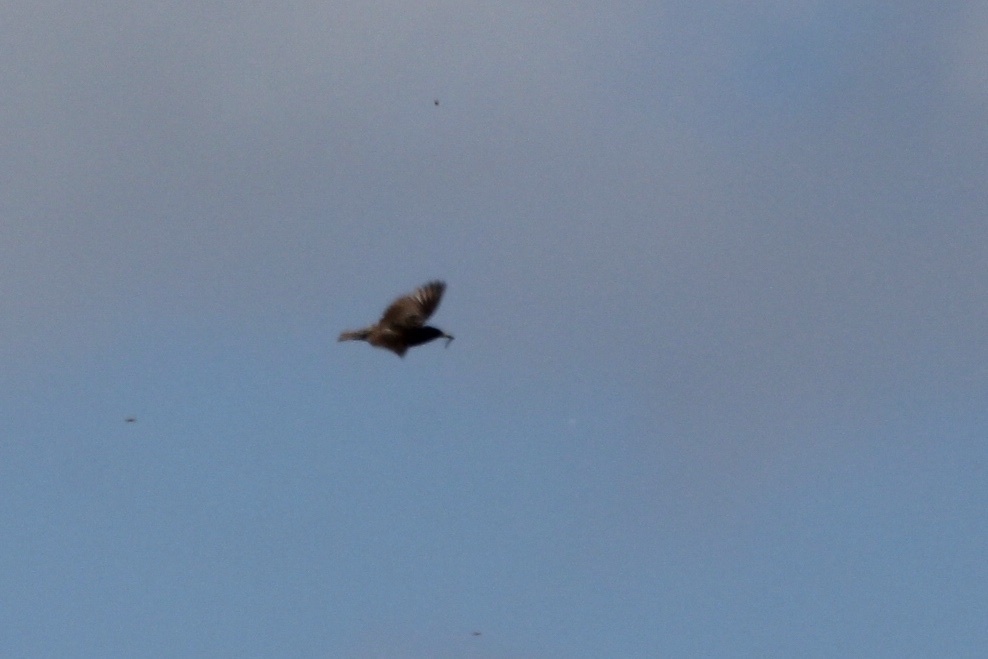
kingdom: Animalia
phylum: Chordata
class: Aves
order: Passeriformes
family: Sturnidae
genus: Sturnus
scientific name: Sturnus vulgaris
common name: Common starling
